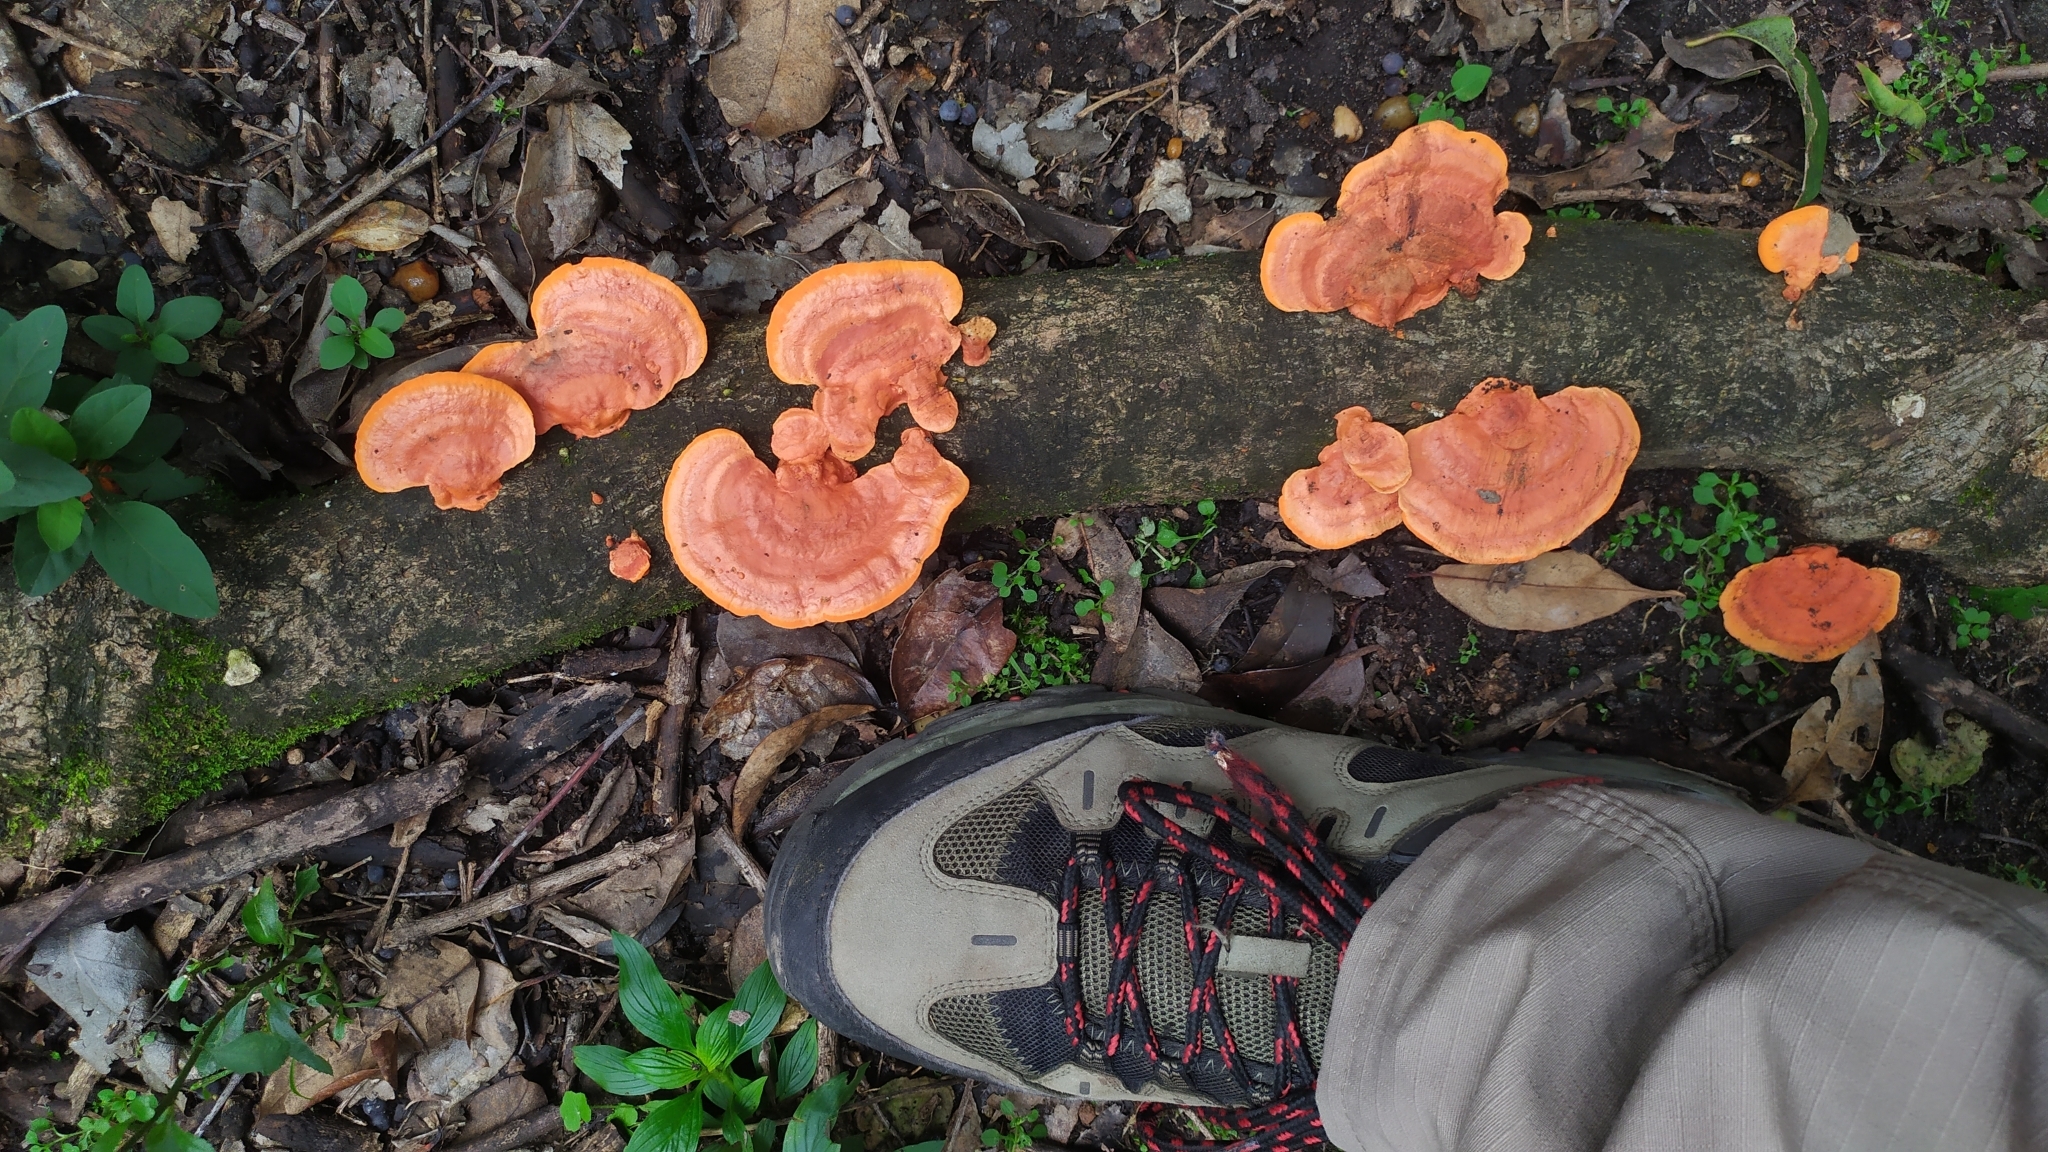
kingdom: Fungi
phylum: Basidiomycota
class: Agaricomycetes
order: Polyporales
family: Polyporaceae
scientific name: Polyporaceae
